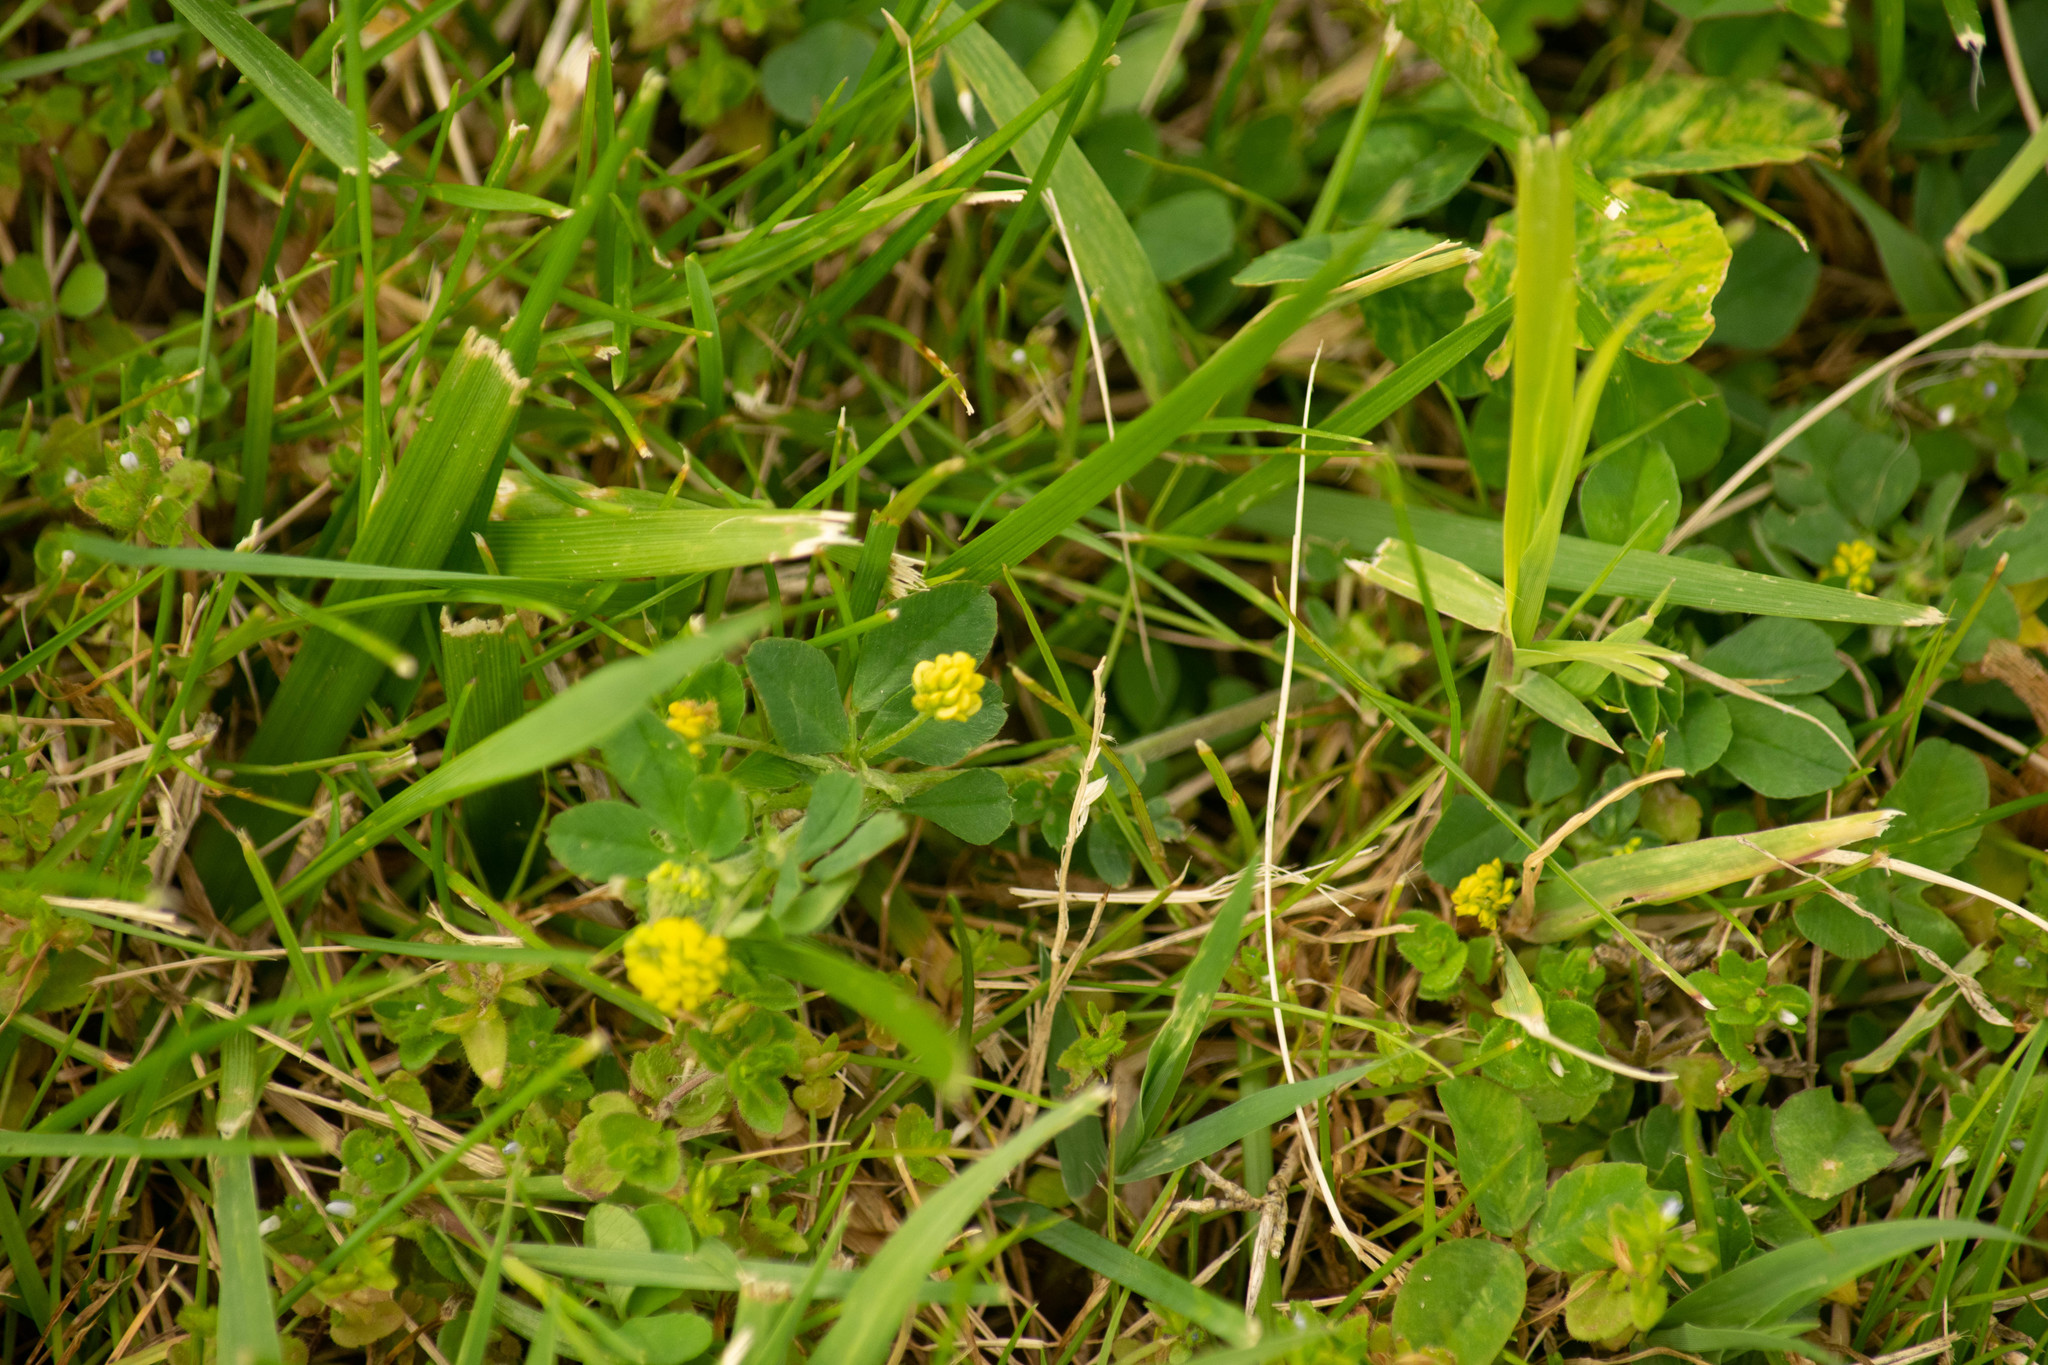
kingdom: Plantae
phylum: Tracheophyta
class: Magnoliopsida
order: Fabales
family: Fabaceae
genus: Medicago
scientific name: Medicago lupulina
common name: Black medick
